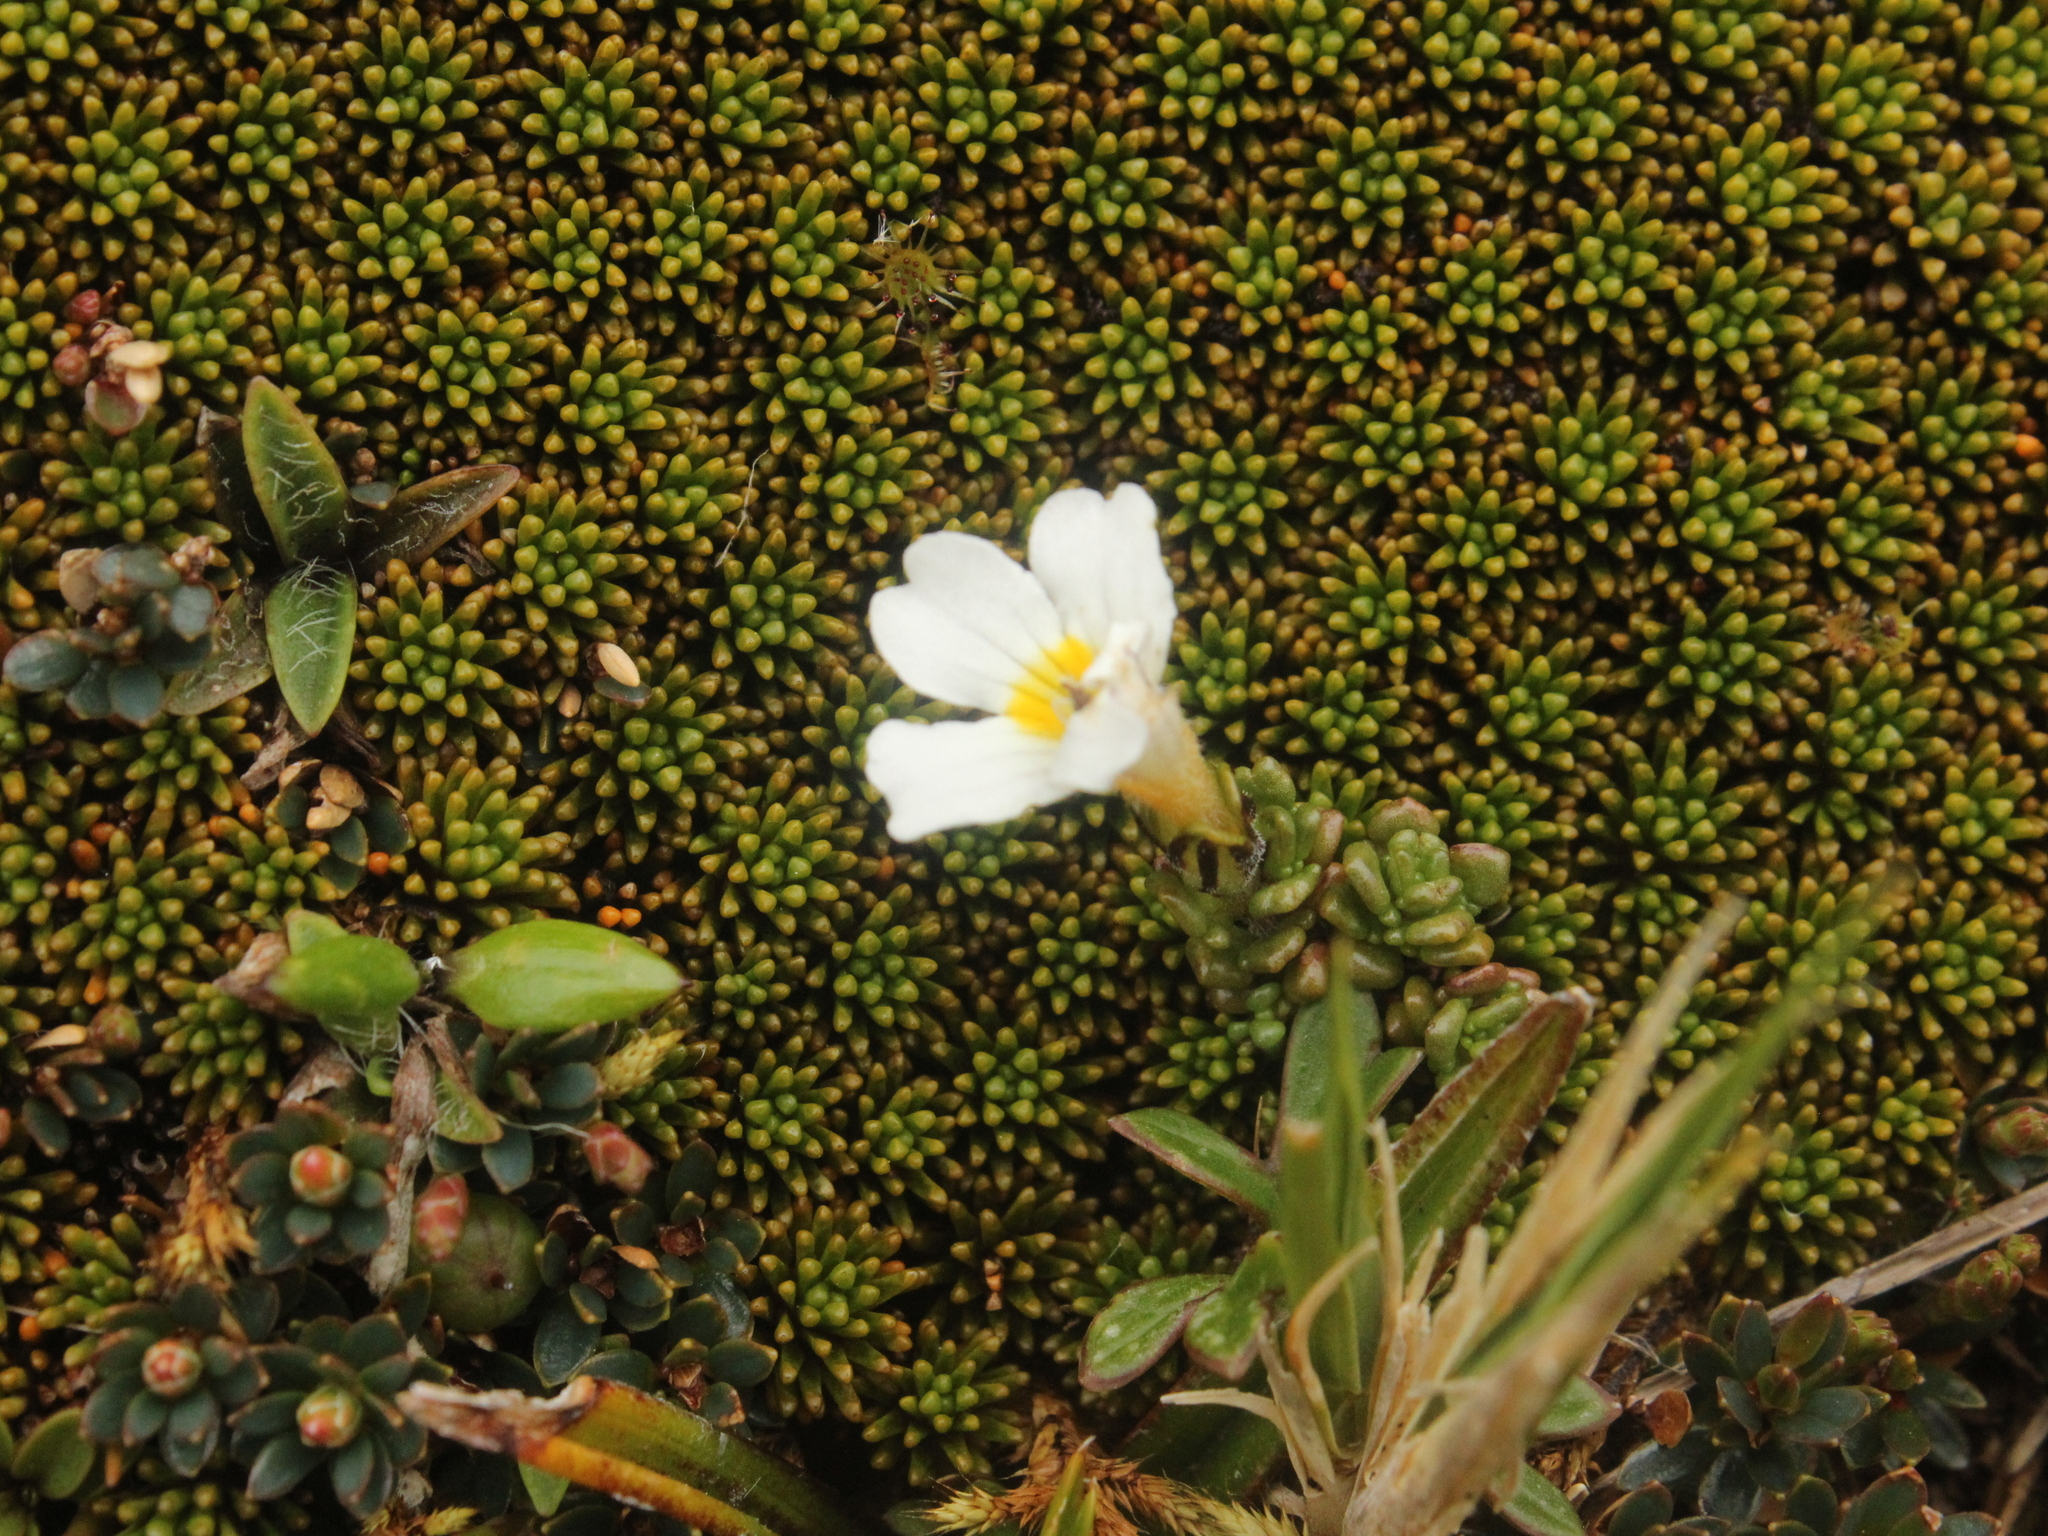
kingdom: Plantae
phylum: Tracheophyta
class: Magnoliopsida
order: Lamiales
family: Orobanchaceae
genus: Euphrasia
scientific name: Euphrasia revoluta
